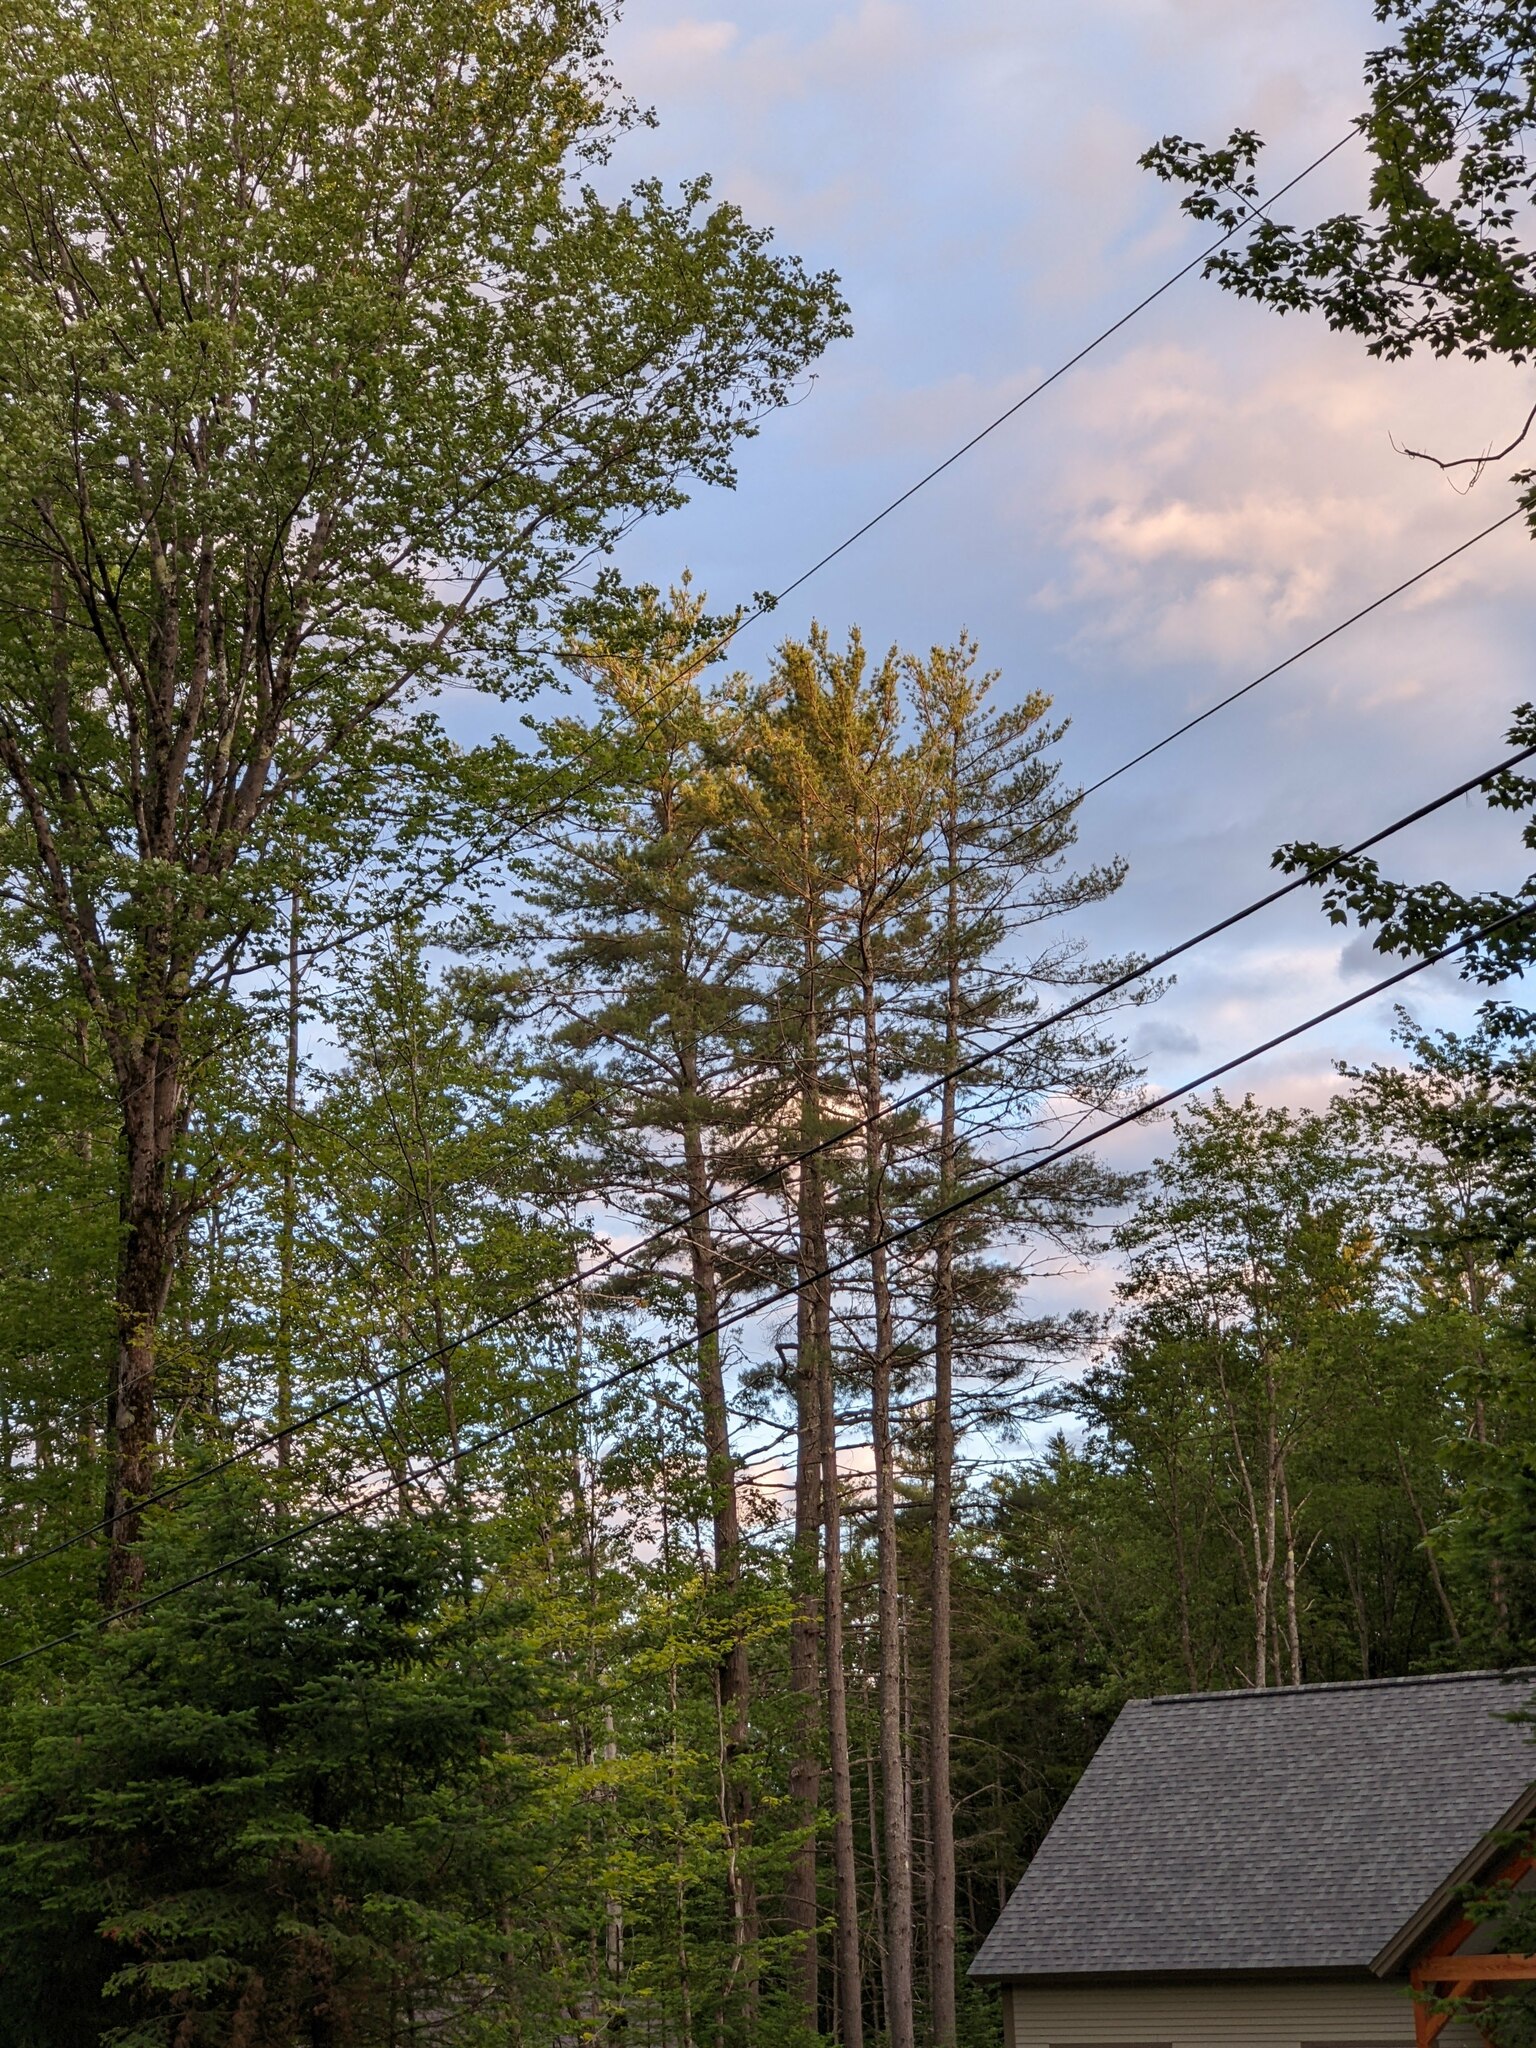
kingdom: Plantae
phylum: Tracheophyta
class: Pinopsida
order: Pinales
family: Pinaceae
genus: Pinus
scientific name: Pinus strobus
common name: Weymouth pine
